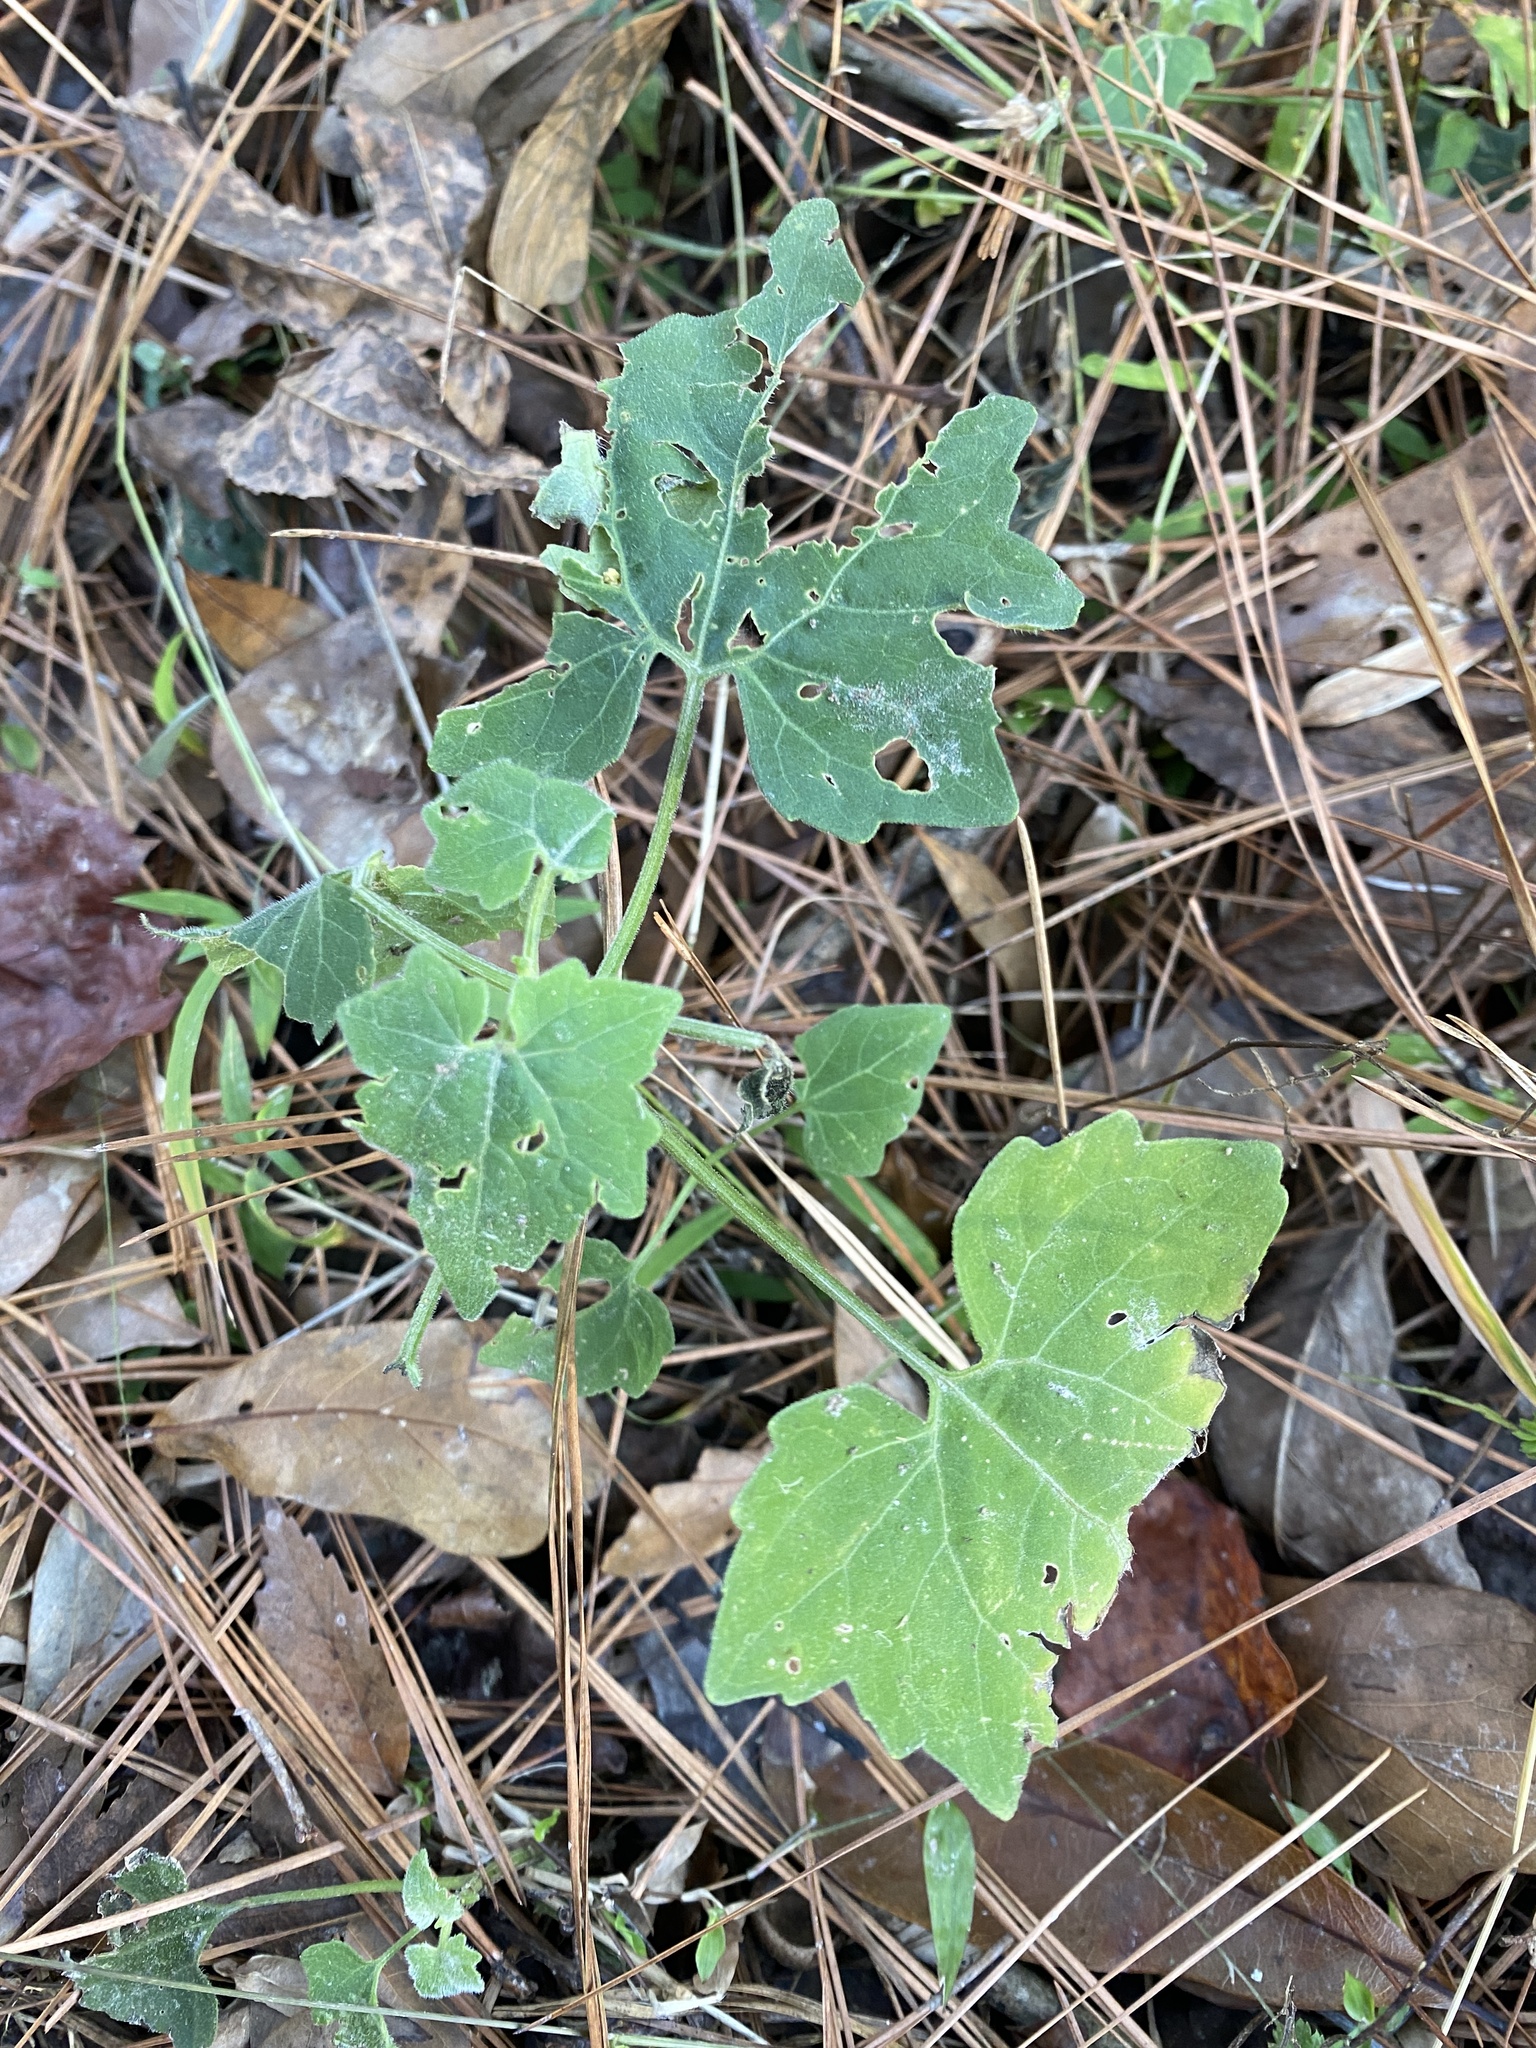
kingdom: Plantae
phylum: Tracheophyta
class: Magnoliopsida
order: Asterales
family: Asteraceae
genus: Mikania
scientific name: Mikania cordifolia
